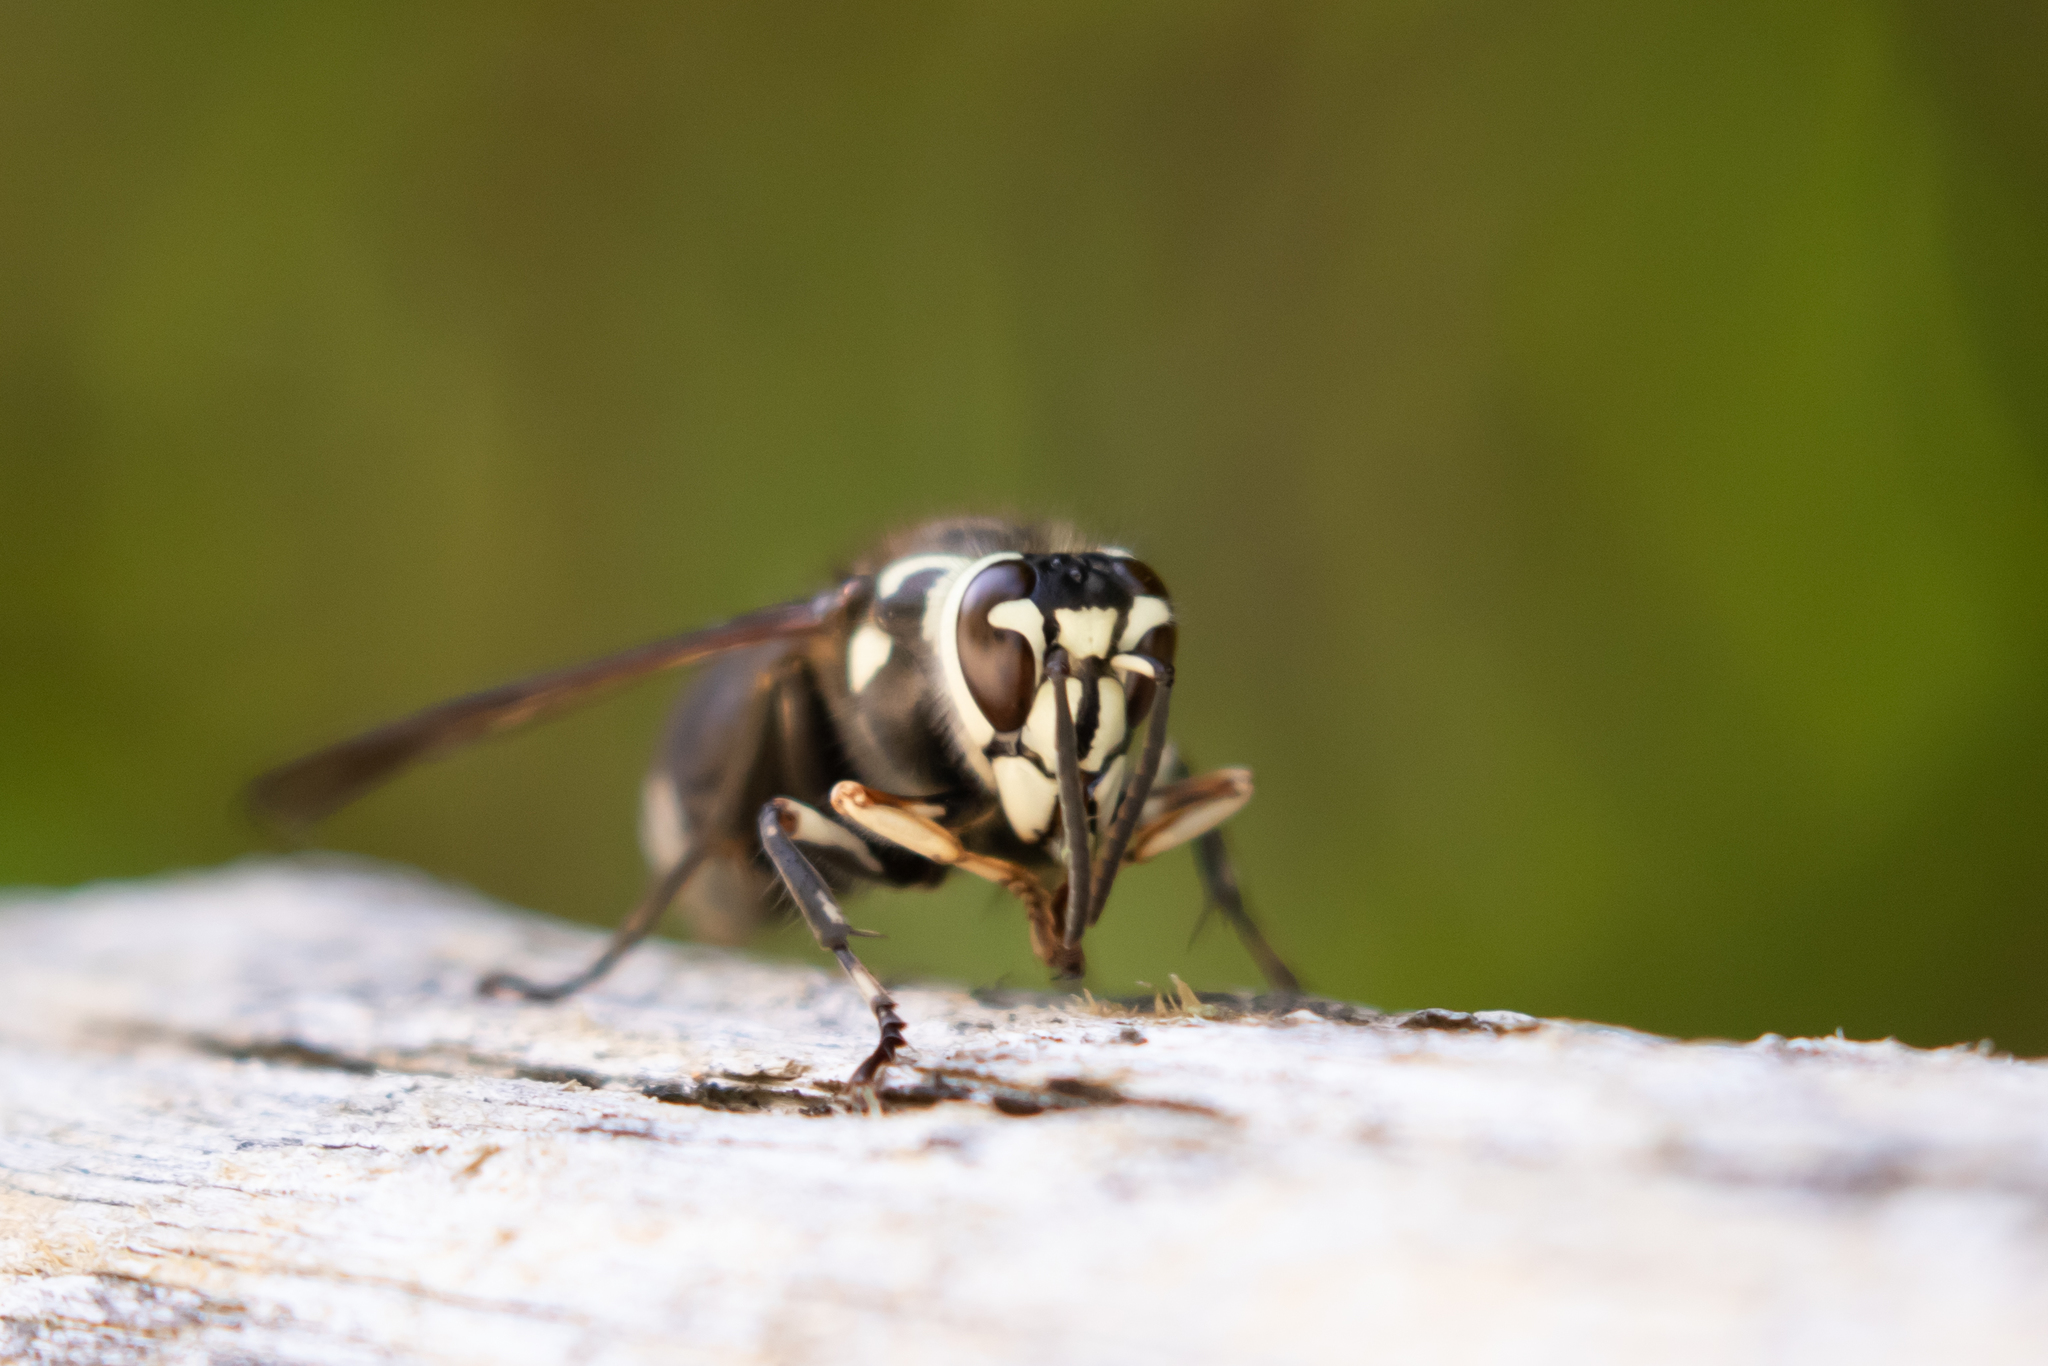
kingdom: Animalia
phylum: Arthropoda
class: Insecta
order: Hymenoptera
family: Vespidae
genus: Dolichovespula
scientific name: Dolichovespula maculata
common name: Bald-faced hornet
